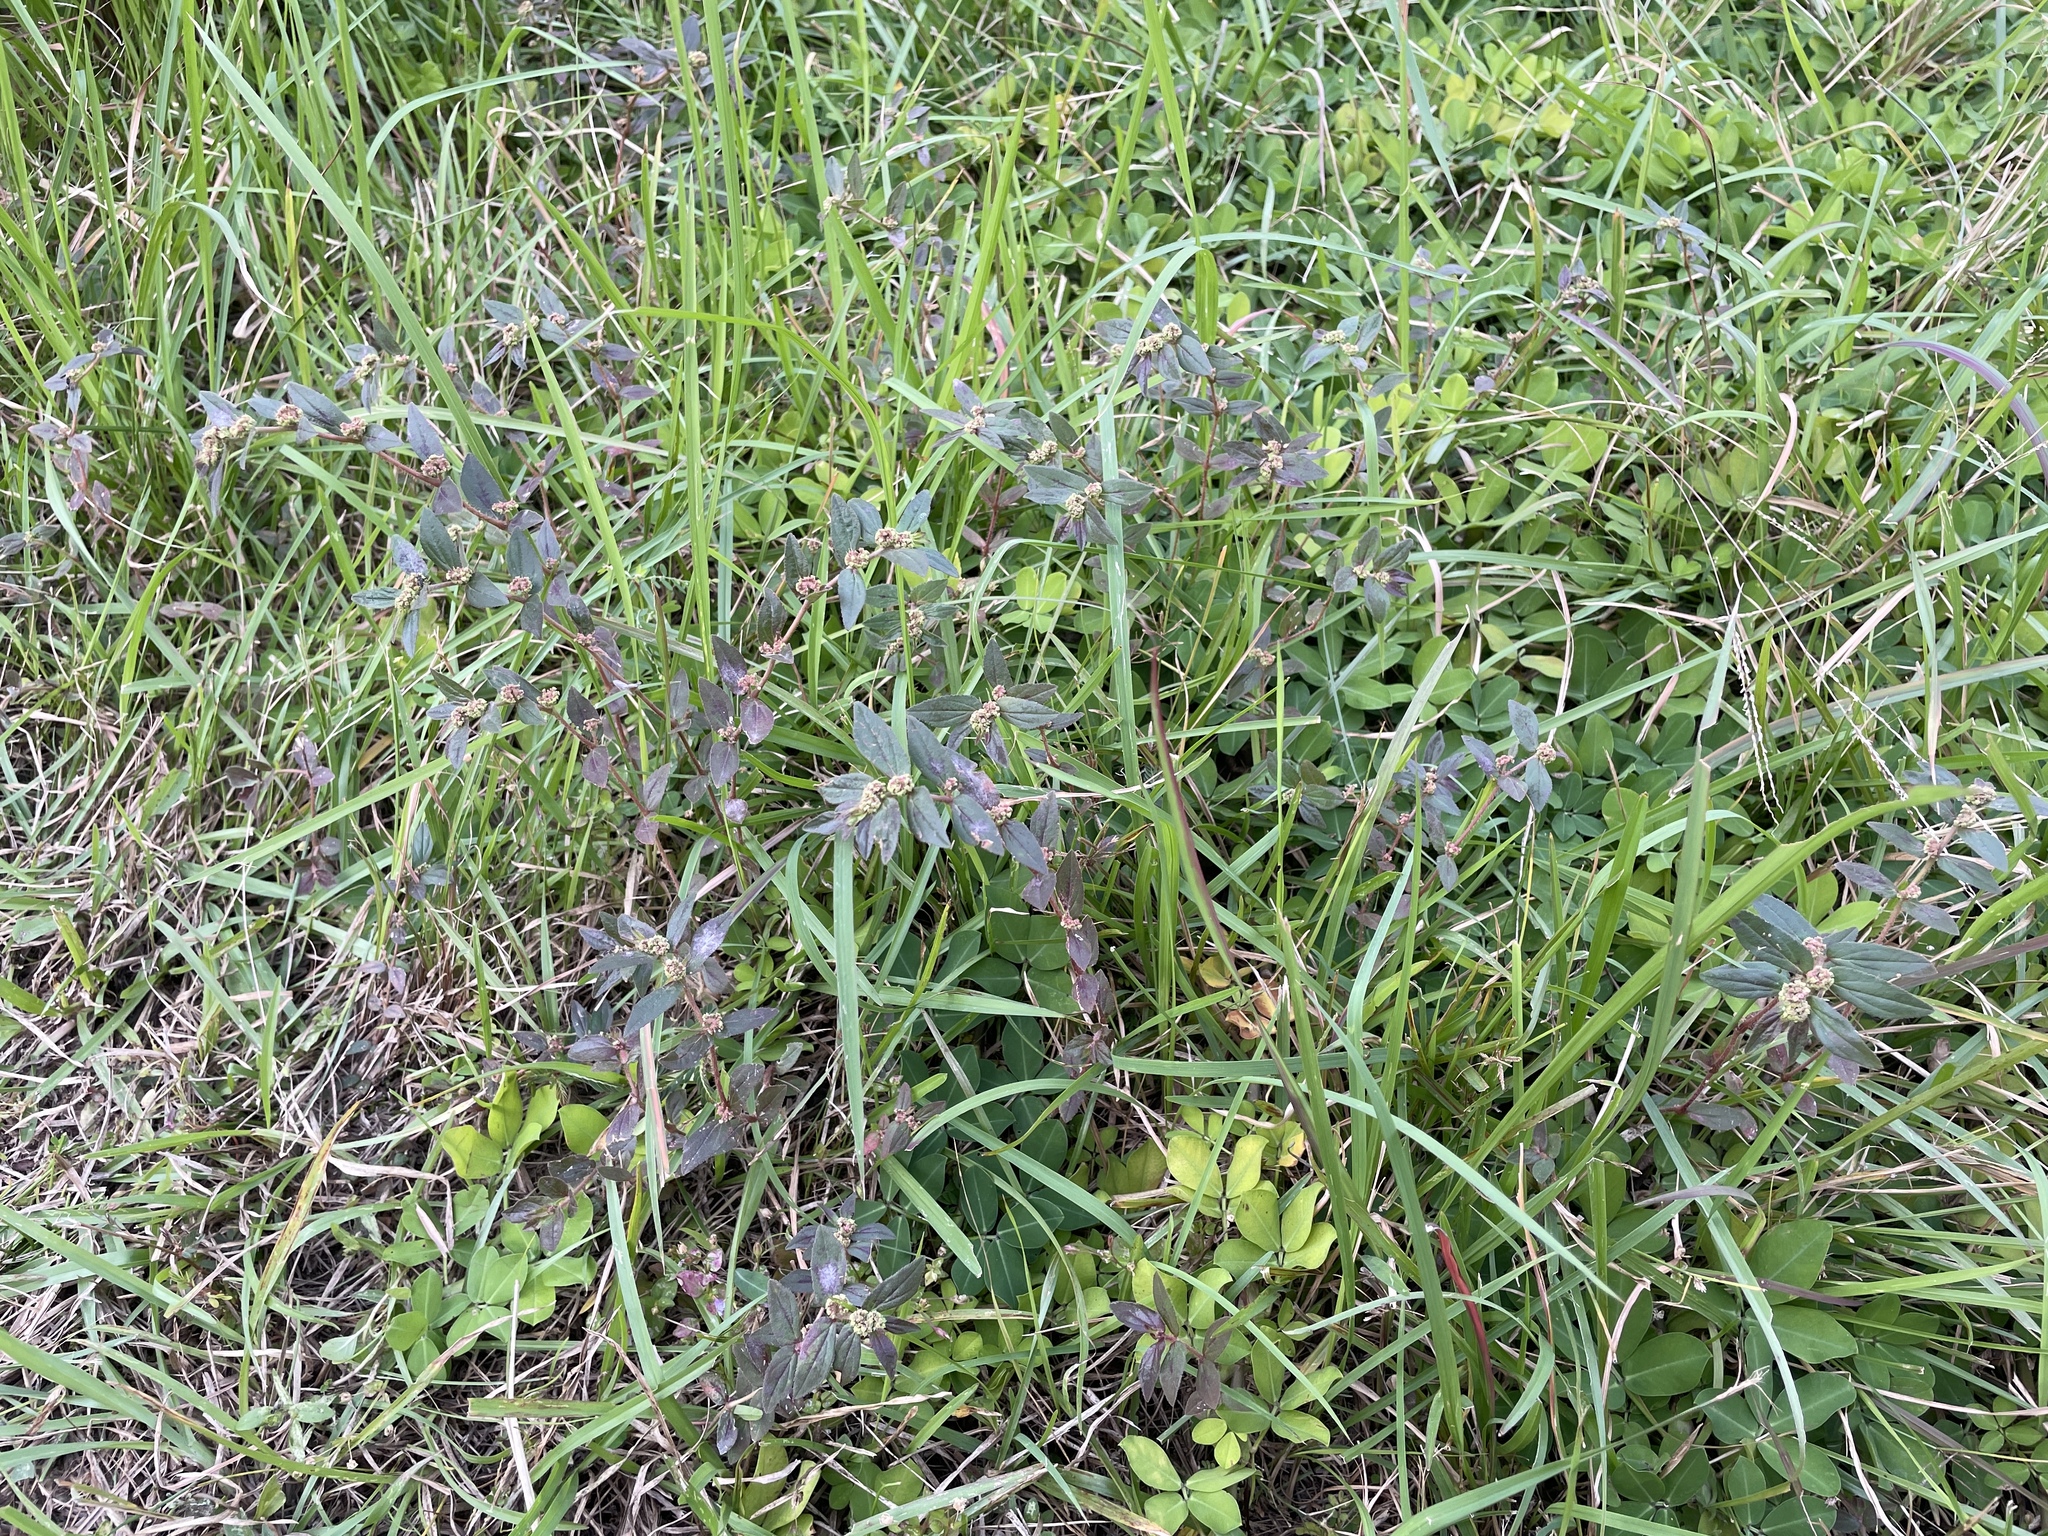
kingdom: Plantae
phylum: Tracheophyta
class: Magnoliopsida
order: Malpighiales
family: Euphorbiaceae
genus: Euphorbia
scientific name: Euphorbia hirta
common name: Pillpod sandmat
